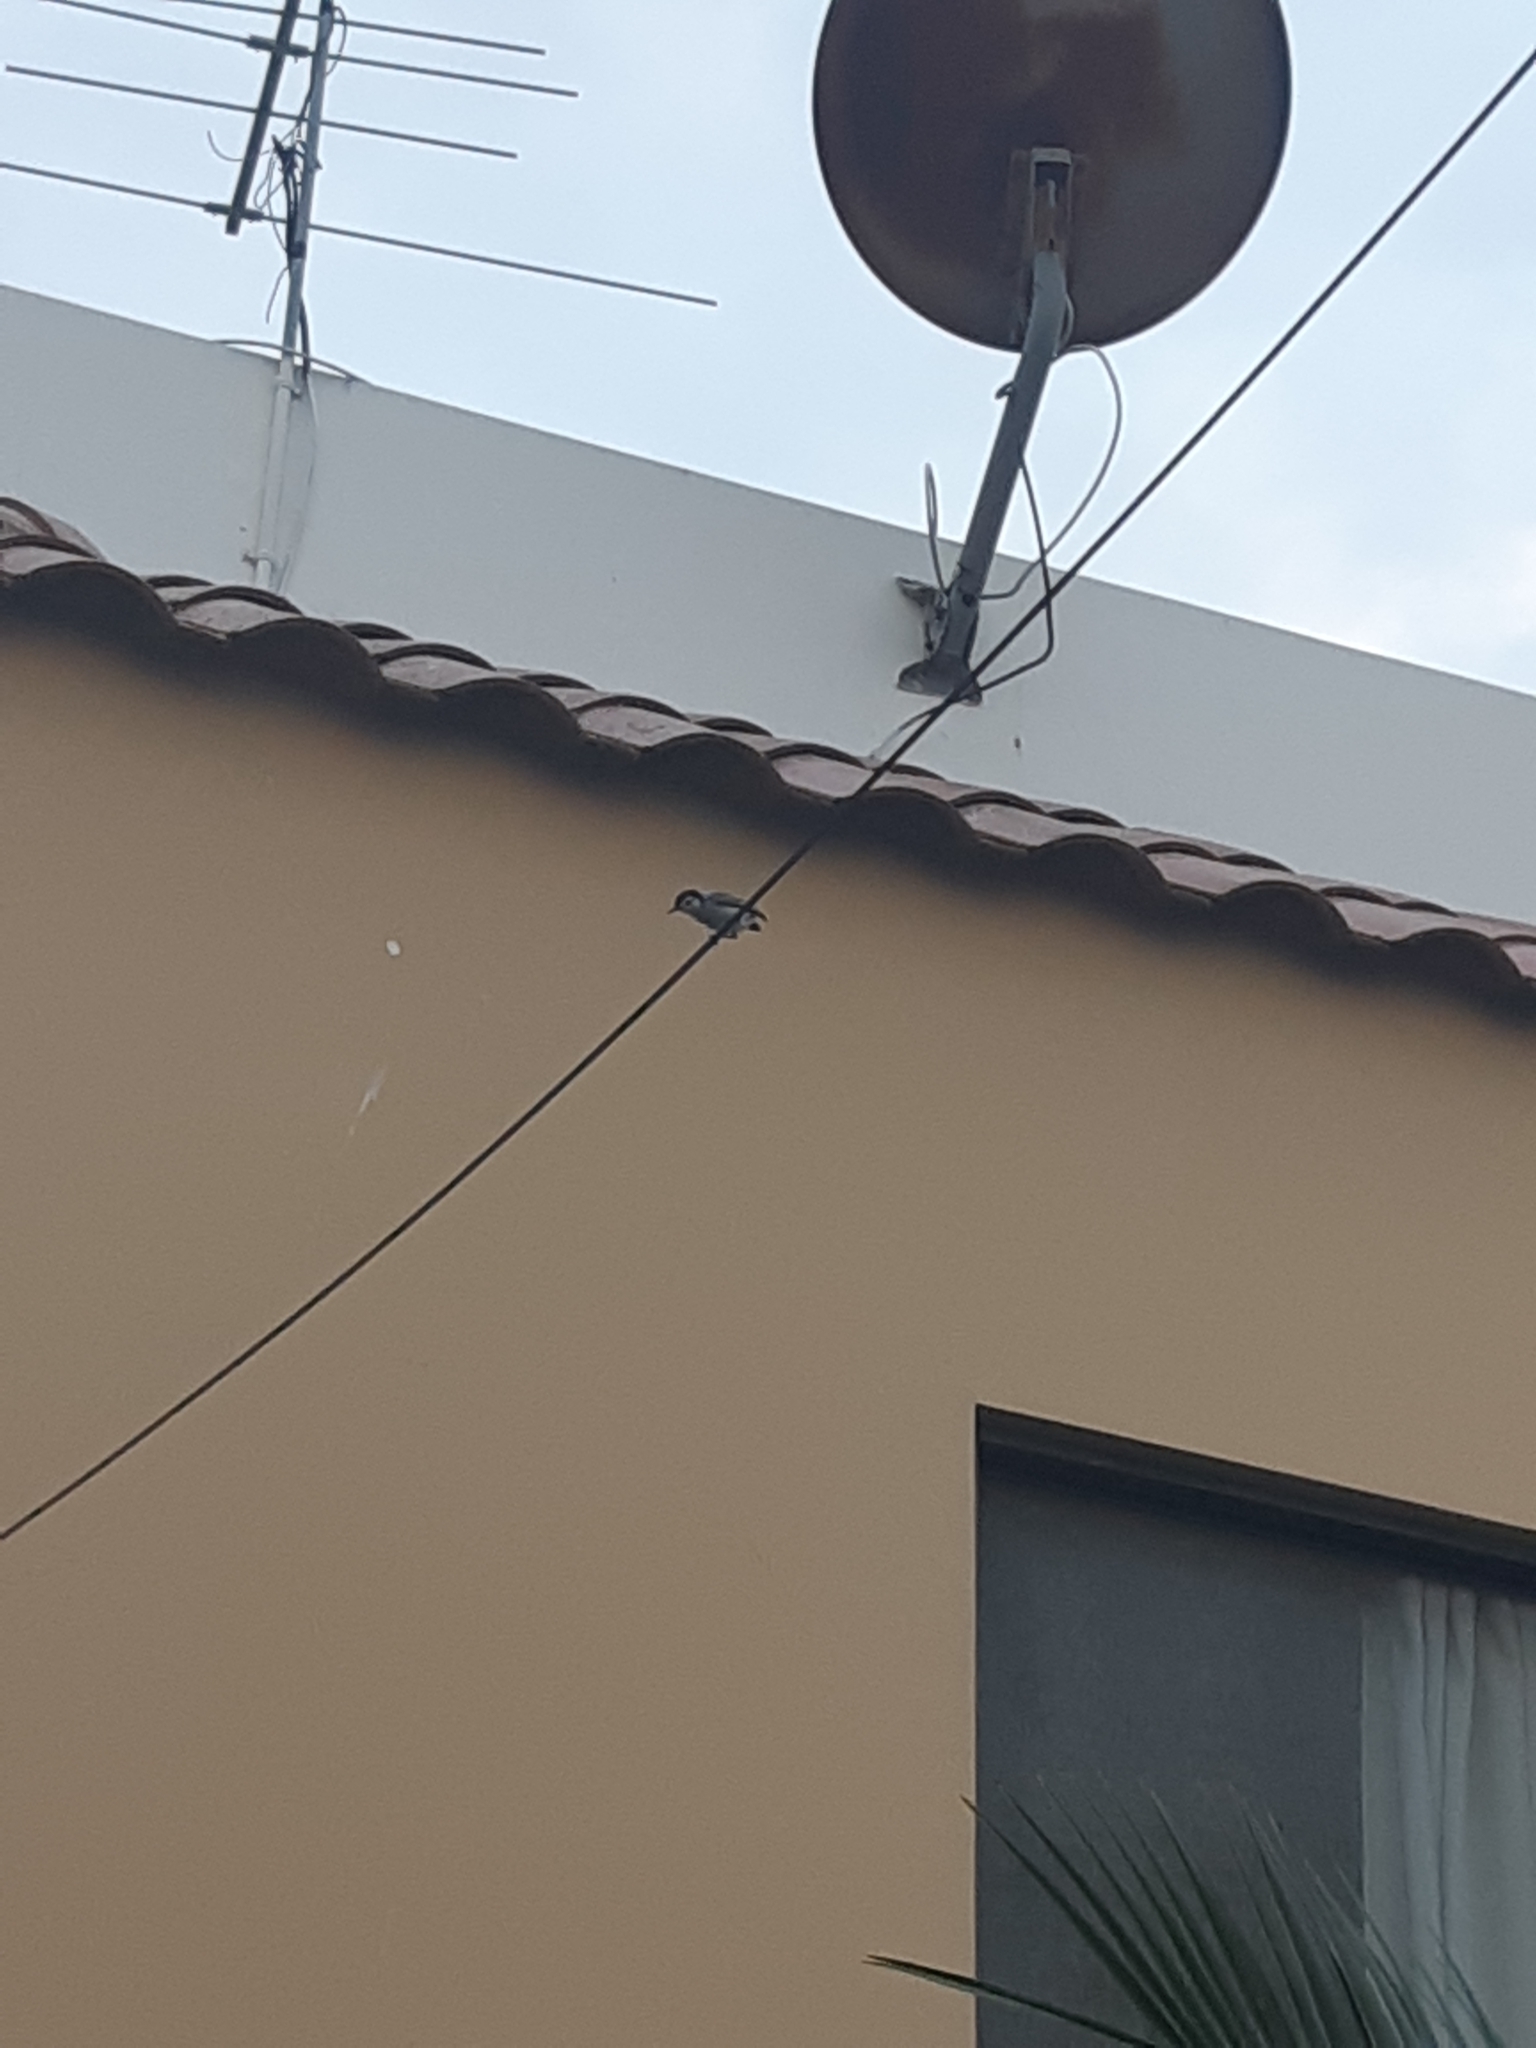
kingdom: Animalia
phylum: Chordata
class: Aves
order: Passeriformes
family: Polioptilidae
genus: Polioptila
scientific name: Polioptila plumbea
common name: Tropical gnatcatcher
